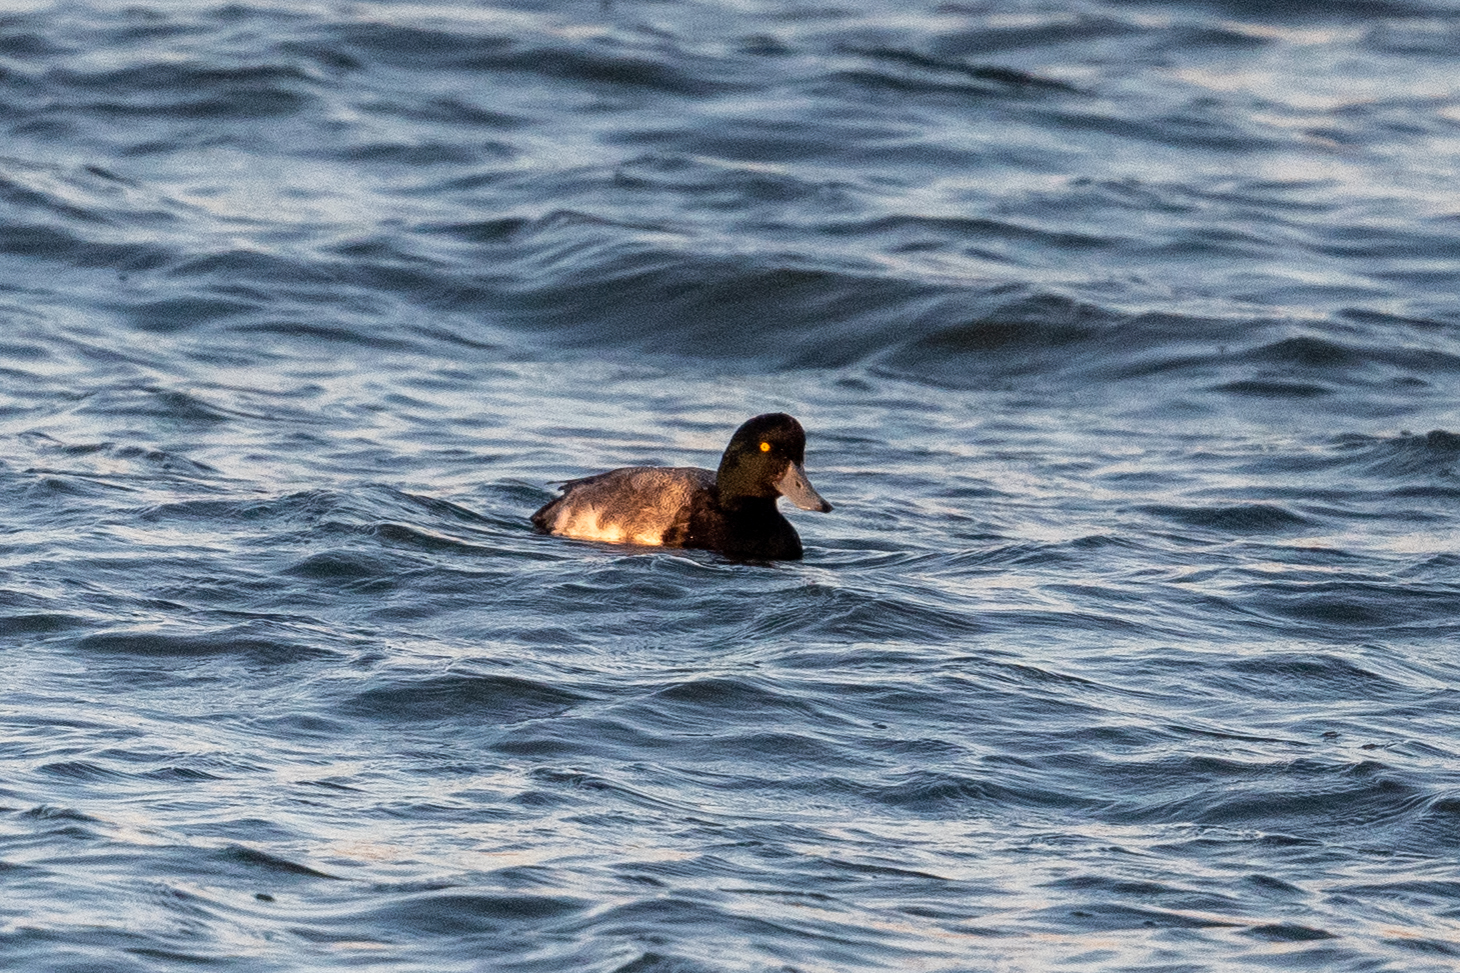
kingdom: Animalia
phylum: Chordata
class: Aves
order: Anseriformes
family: Anatidae
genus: Aythya
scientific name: Aythya marila
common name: Greater scaup
